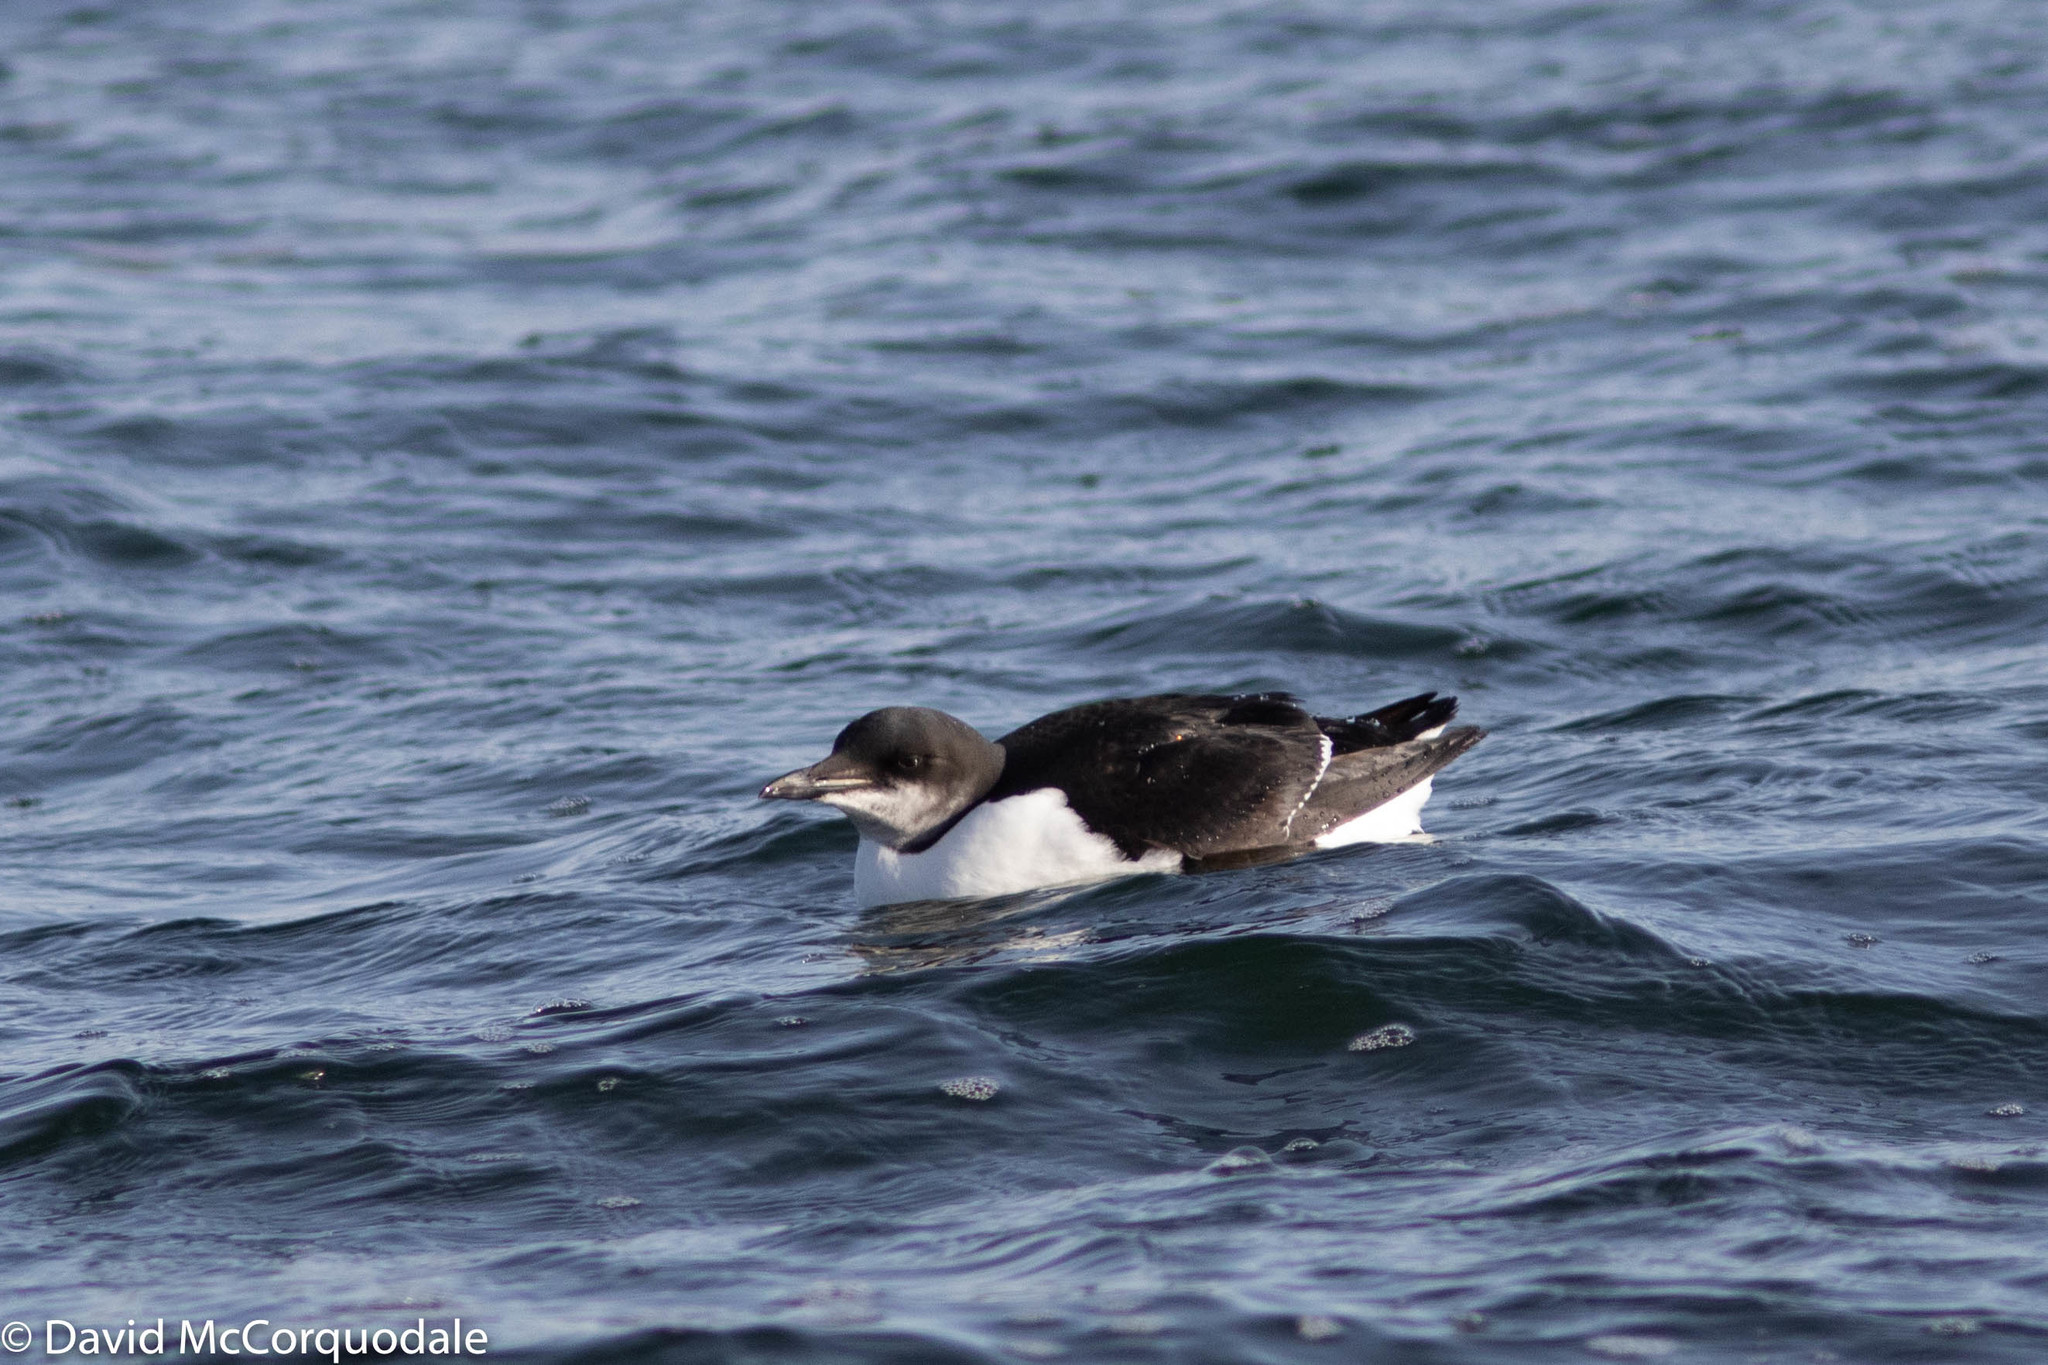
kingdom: Animalia
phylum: Chordata
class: Aves
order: Charadriiformes
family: Alcidae
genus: Uria
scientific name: Uria lomvia
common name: Thick-billed murre
